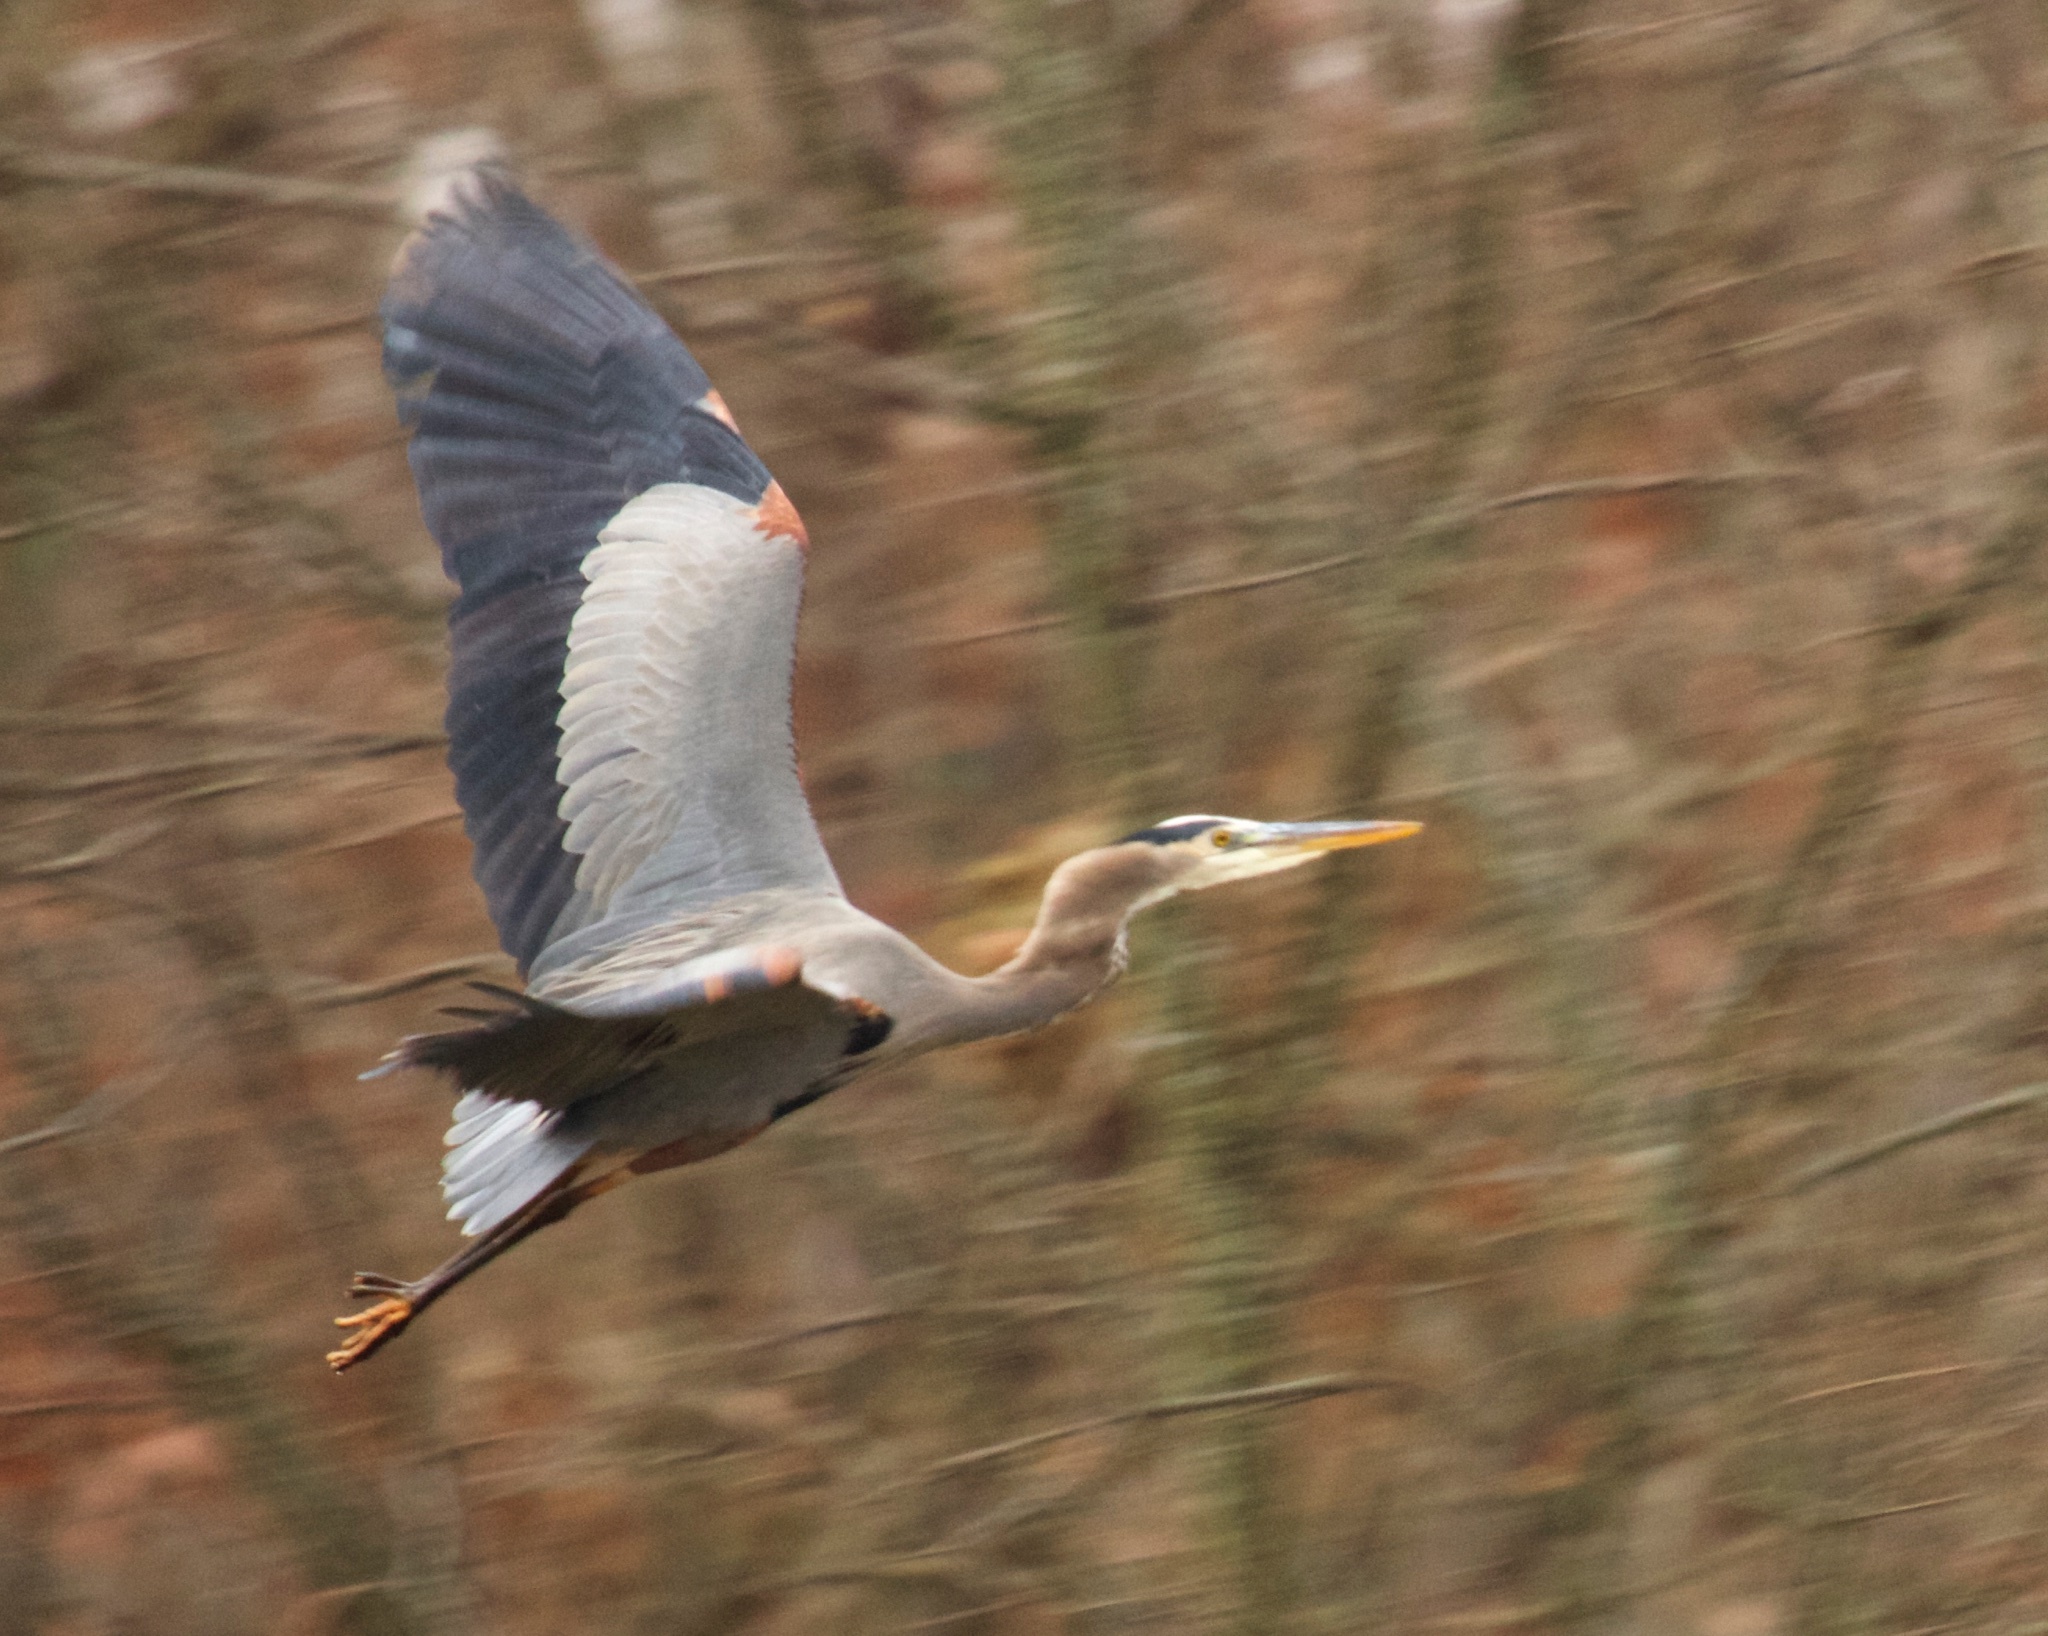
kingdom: Animalia
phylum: Chordata
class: Aves
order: Pelecaniformes
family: Ardeidae
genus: Ardea
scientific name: Ardea herodias
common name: Great blue heron
